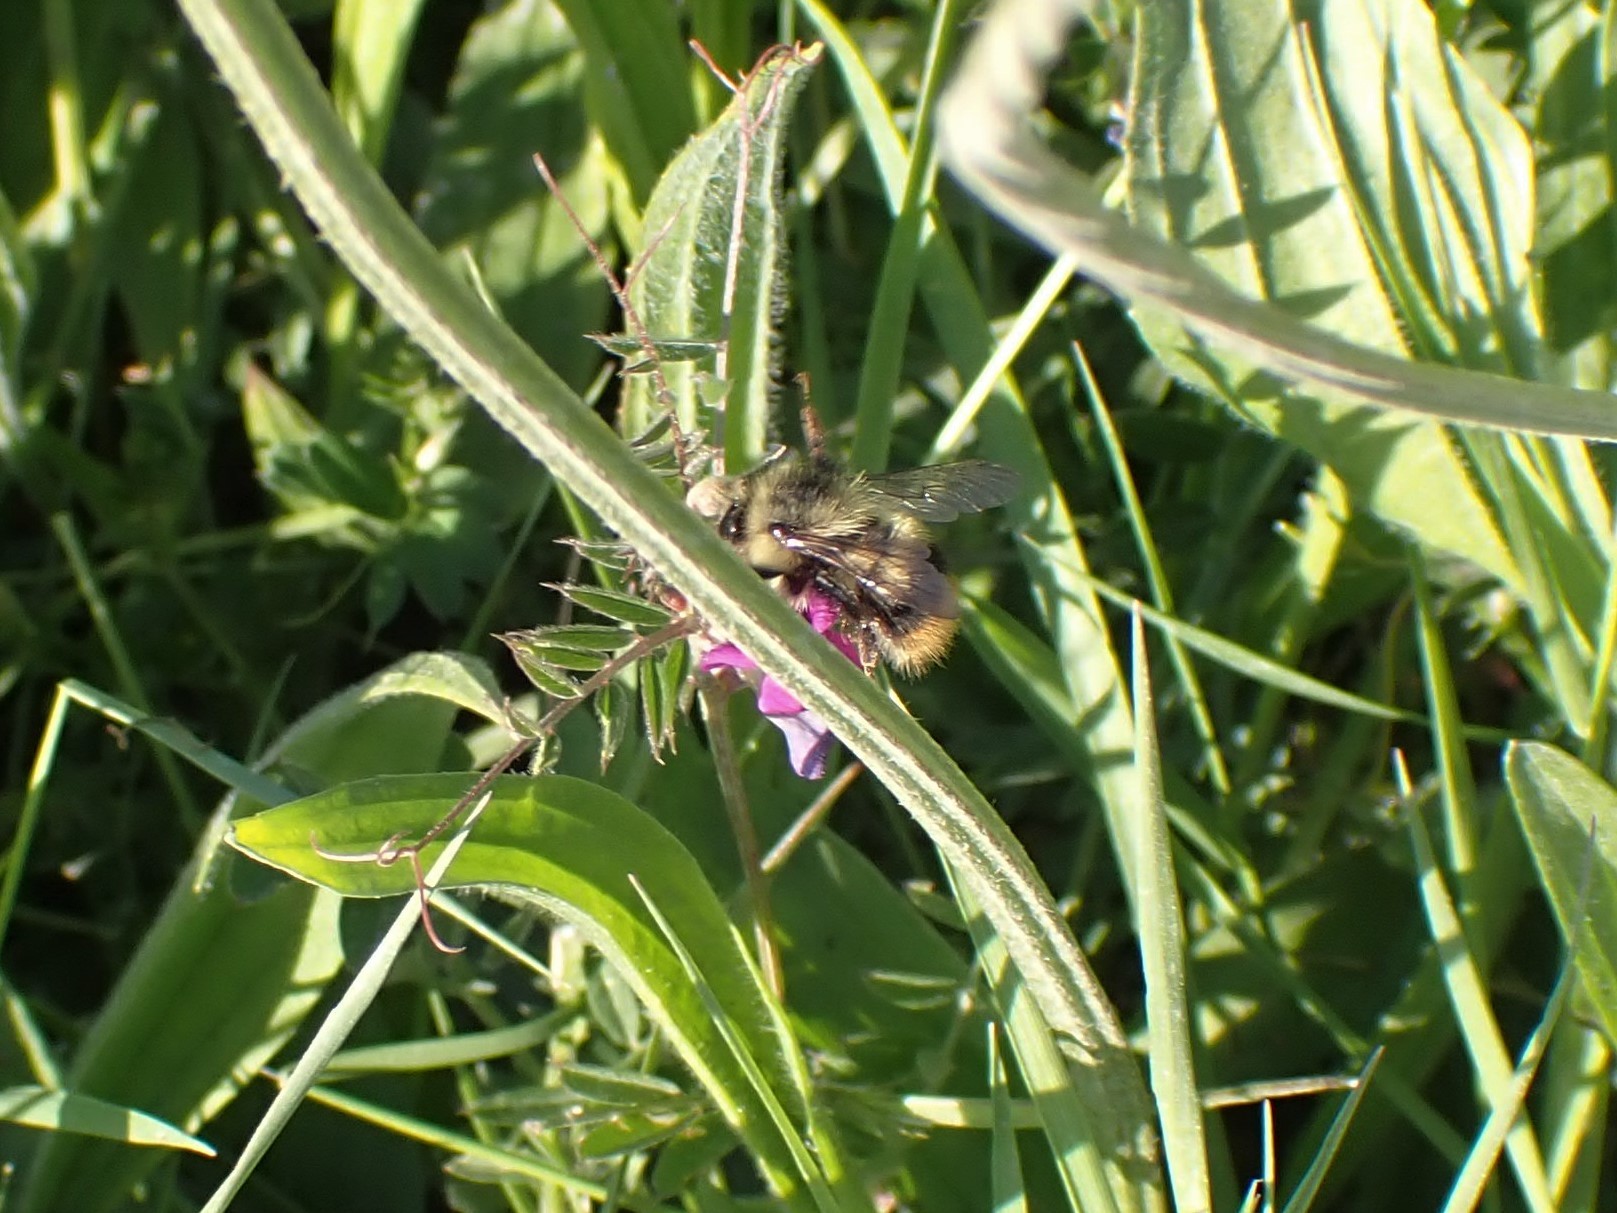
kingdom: Animalia
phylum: Arthropoda
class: Insecta
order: Hymenoptera
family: Apidae
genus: Bombus
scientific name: Bombus mixtus
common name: Fuzzy-horned bumble bee
